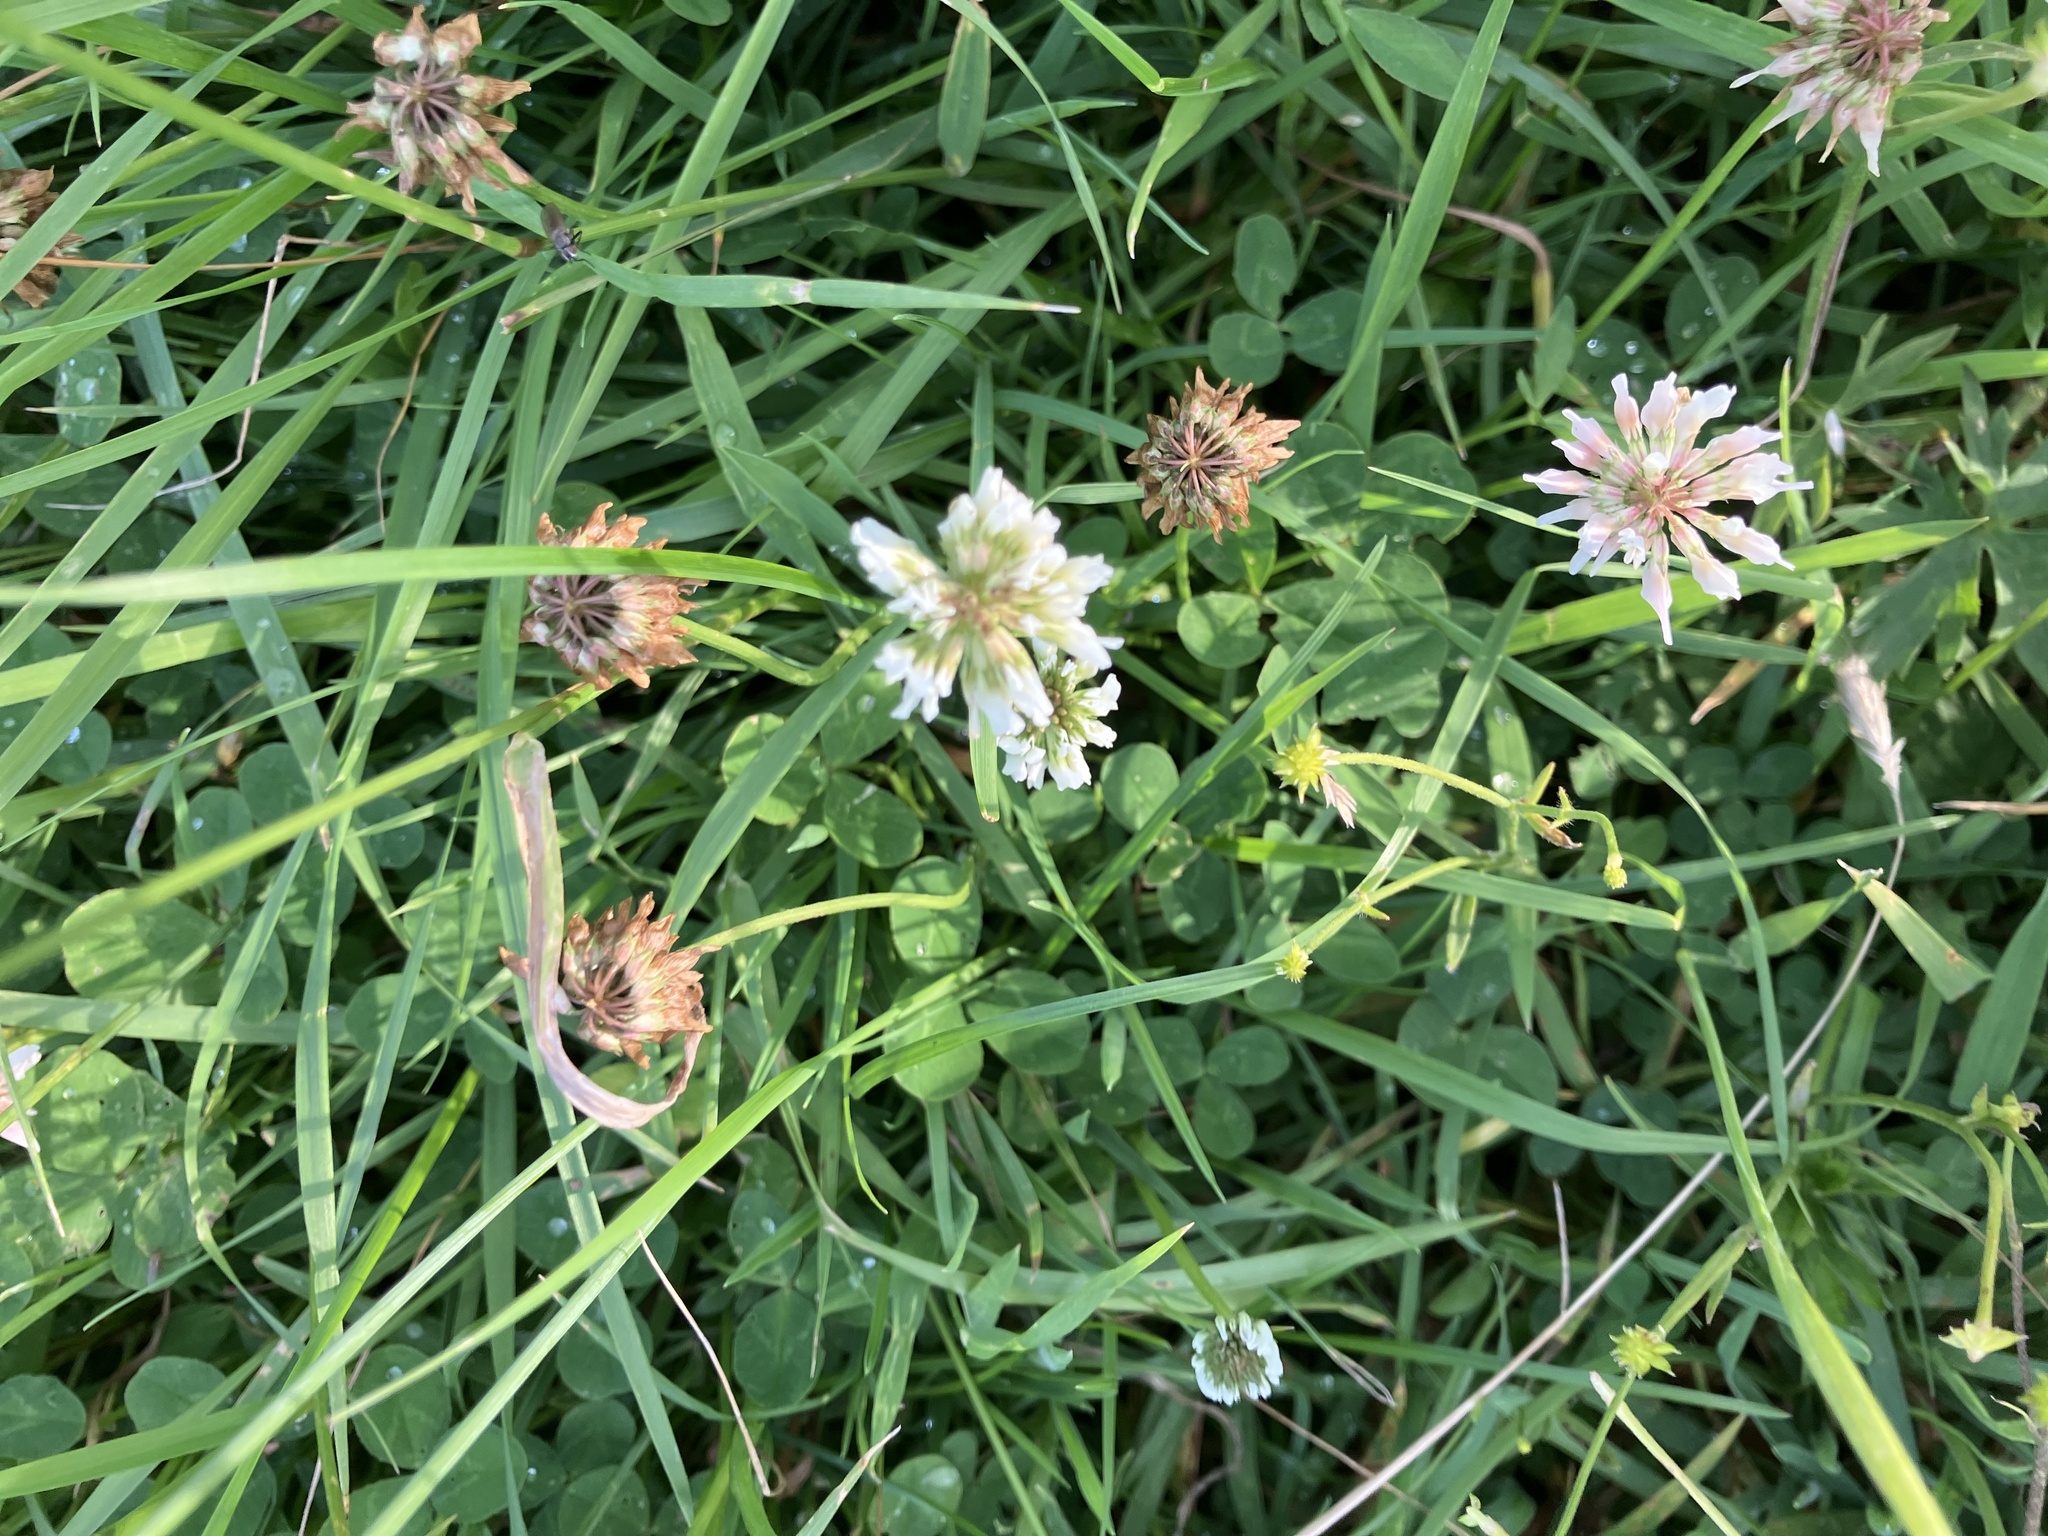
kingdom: Plantae
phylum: Tracheophyta
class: Magnoliopsida
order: Fabales
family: Fabaceae
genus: Trifolium
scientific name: Trifolium repens
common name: White clover
